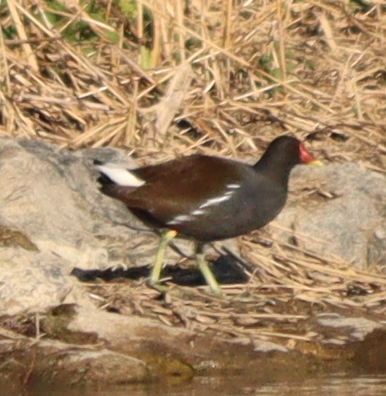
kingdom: Animalia
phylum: Chordata
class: Aves
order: Gruiformes
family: Rallidae
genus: Gallinula
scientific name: Gallinula chloropus
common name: Common moorhen
